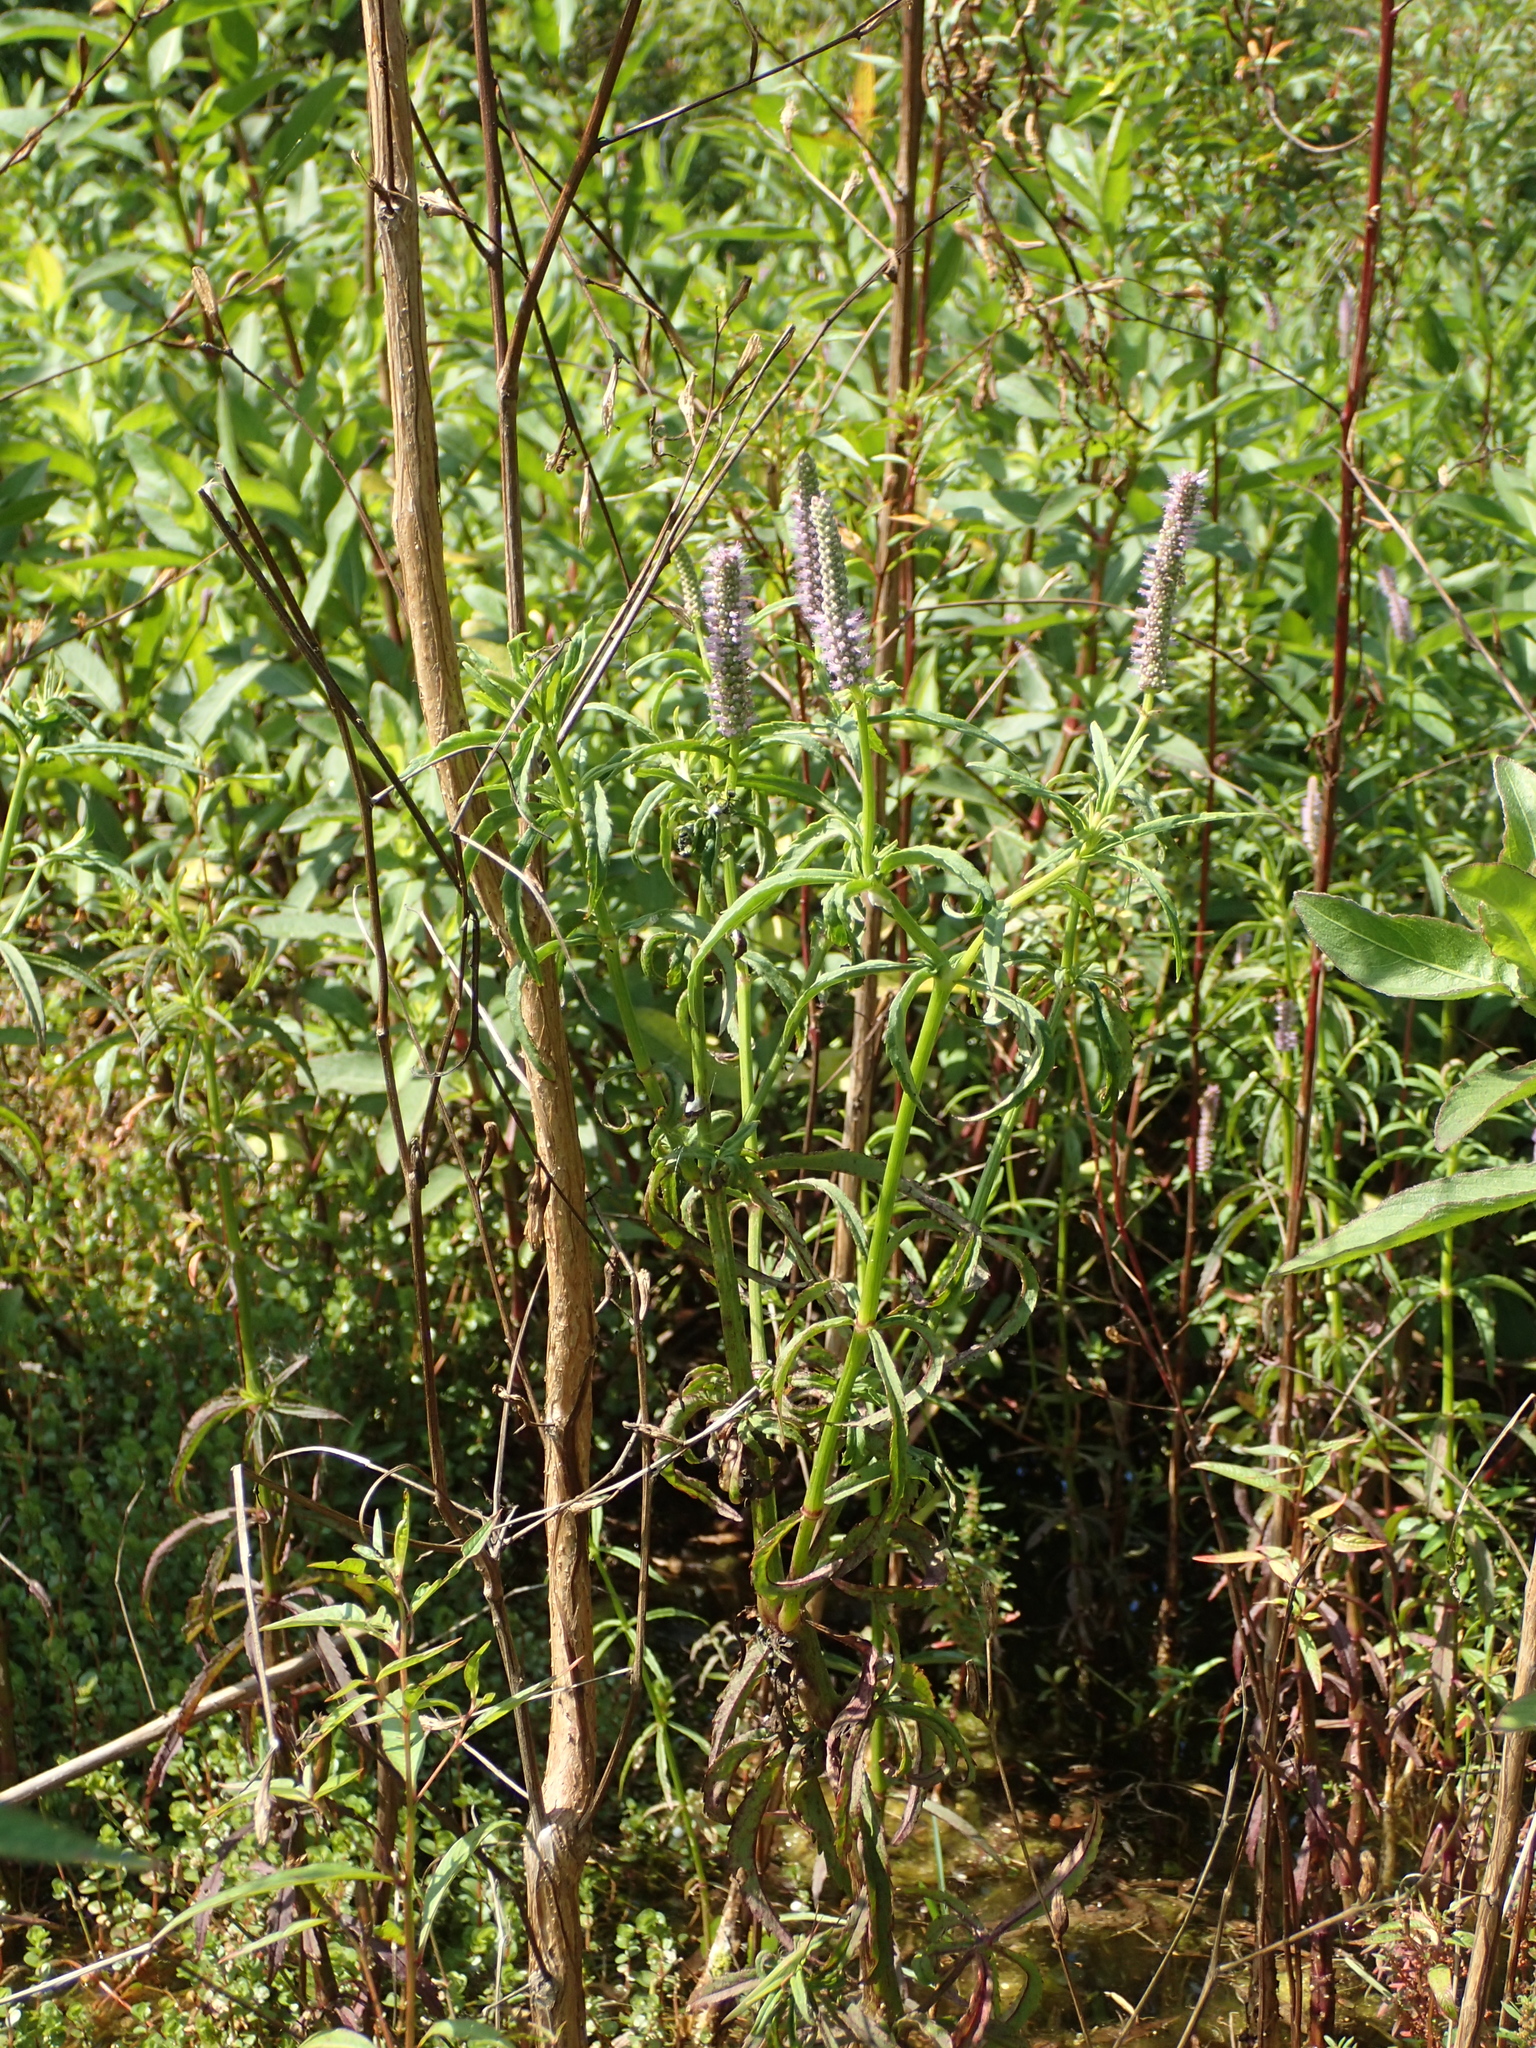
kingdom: Plantae
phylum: Tracheophyta
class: Magnoliopsida
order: Lamiales
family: Lamiaceae
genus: Pogostemon
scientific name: Pogostemon stellatus
